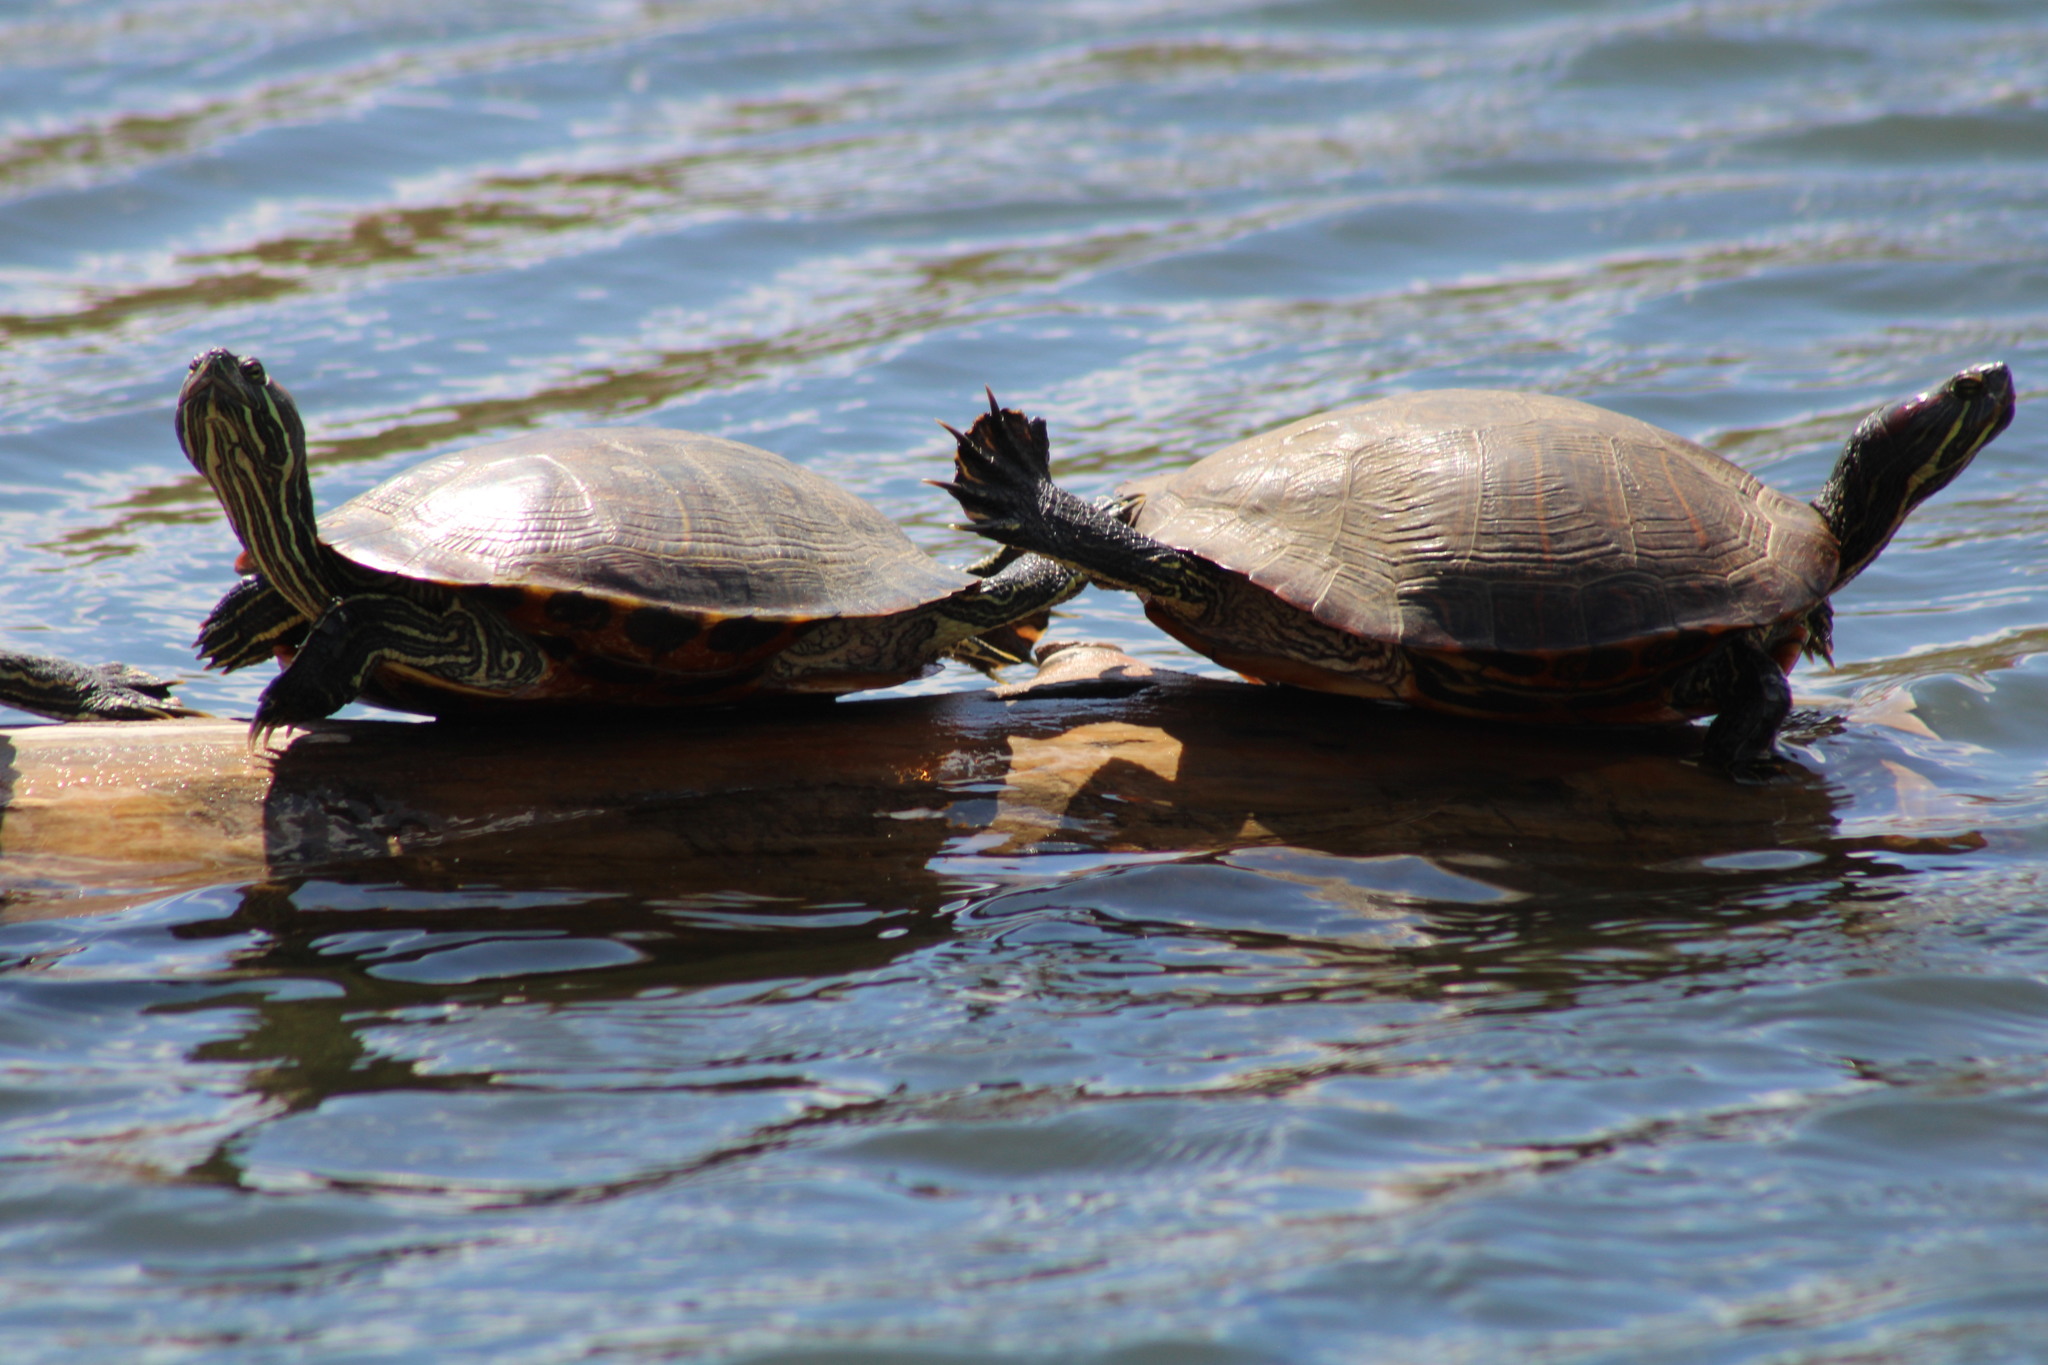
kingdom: Animalia
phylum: Chordata
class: Testudines
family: Emydidae
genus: Trachemys
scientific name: Trachemys scripta
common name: Slider
